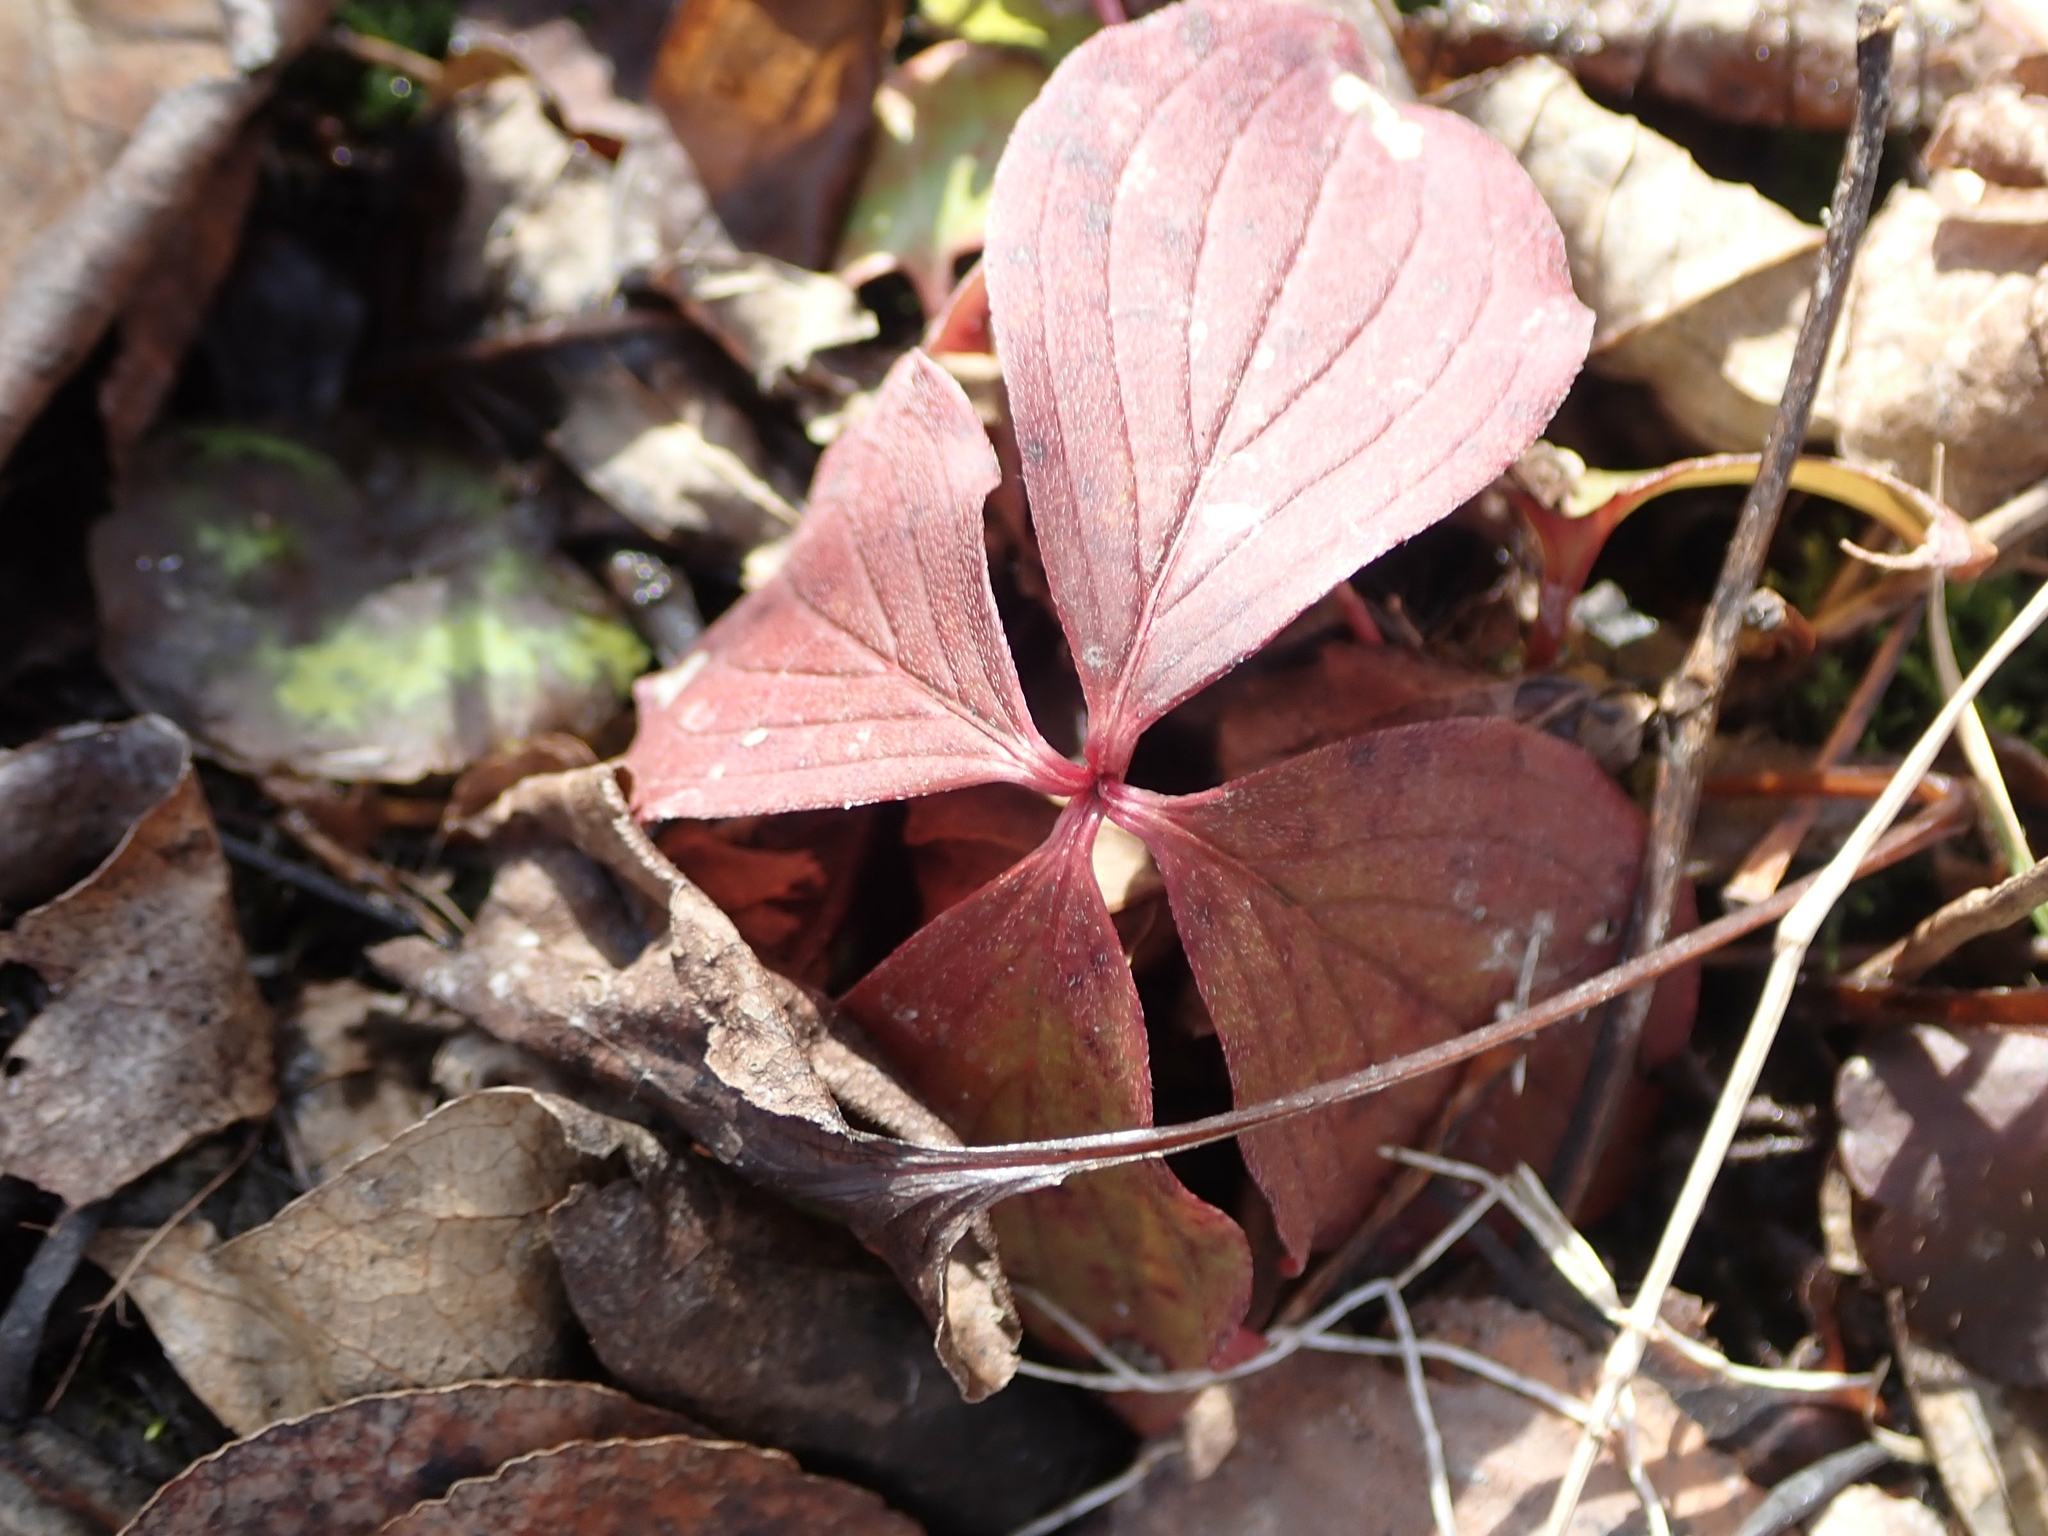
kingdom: Plantae
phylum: Tracheophyta
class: Magnoliopsida
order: Cornales
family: Cornaceae
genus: Cornus
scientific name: Cornus canadensis
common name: Creeping dogwood
